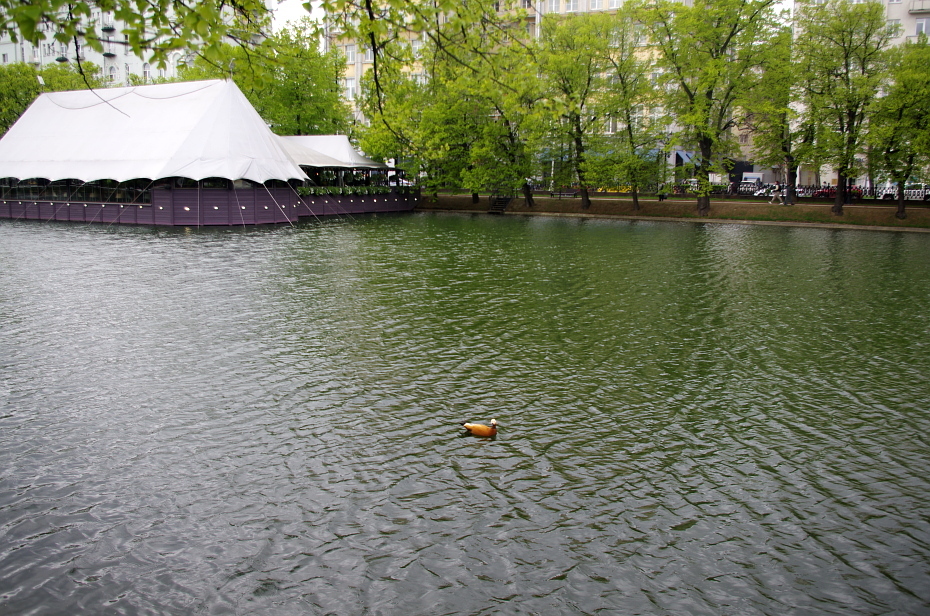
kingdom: Animalia
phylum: Chordata
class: Aves
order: Anseriformes
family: Anatidae
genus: Tadorna
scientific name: Tadorna ferruginea
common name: Ruddy shelduck
